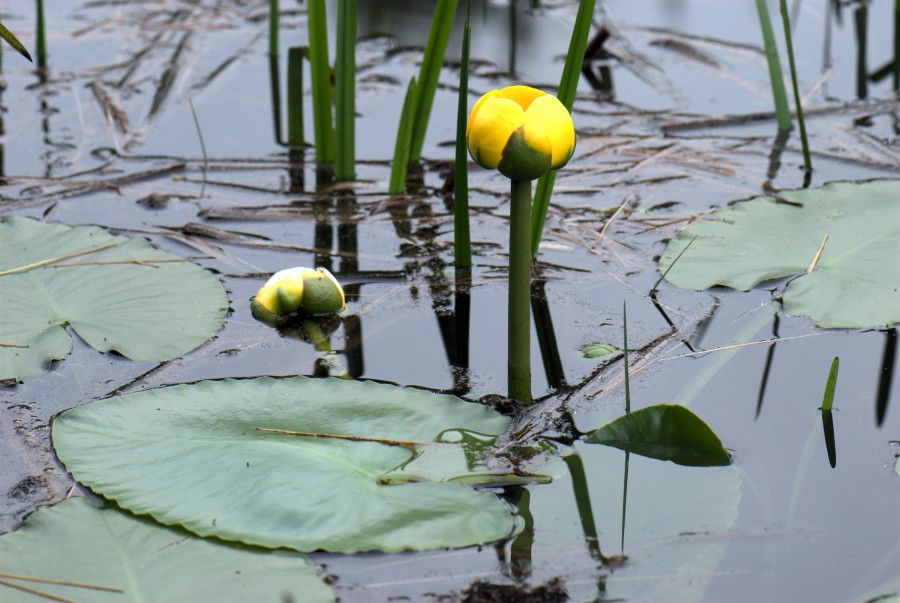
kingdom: Plantae
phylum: Tracheophyta
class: Magnoliopsida
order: Nymphaeales
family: Nymphaeaceae
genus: Nuphar
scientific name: Nuphar variegata
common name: Beaver-root
